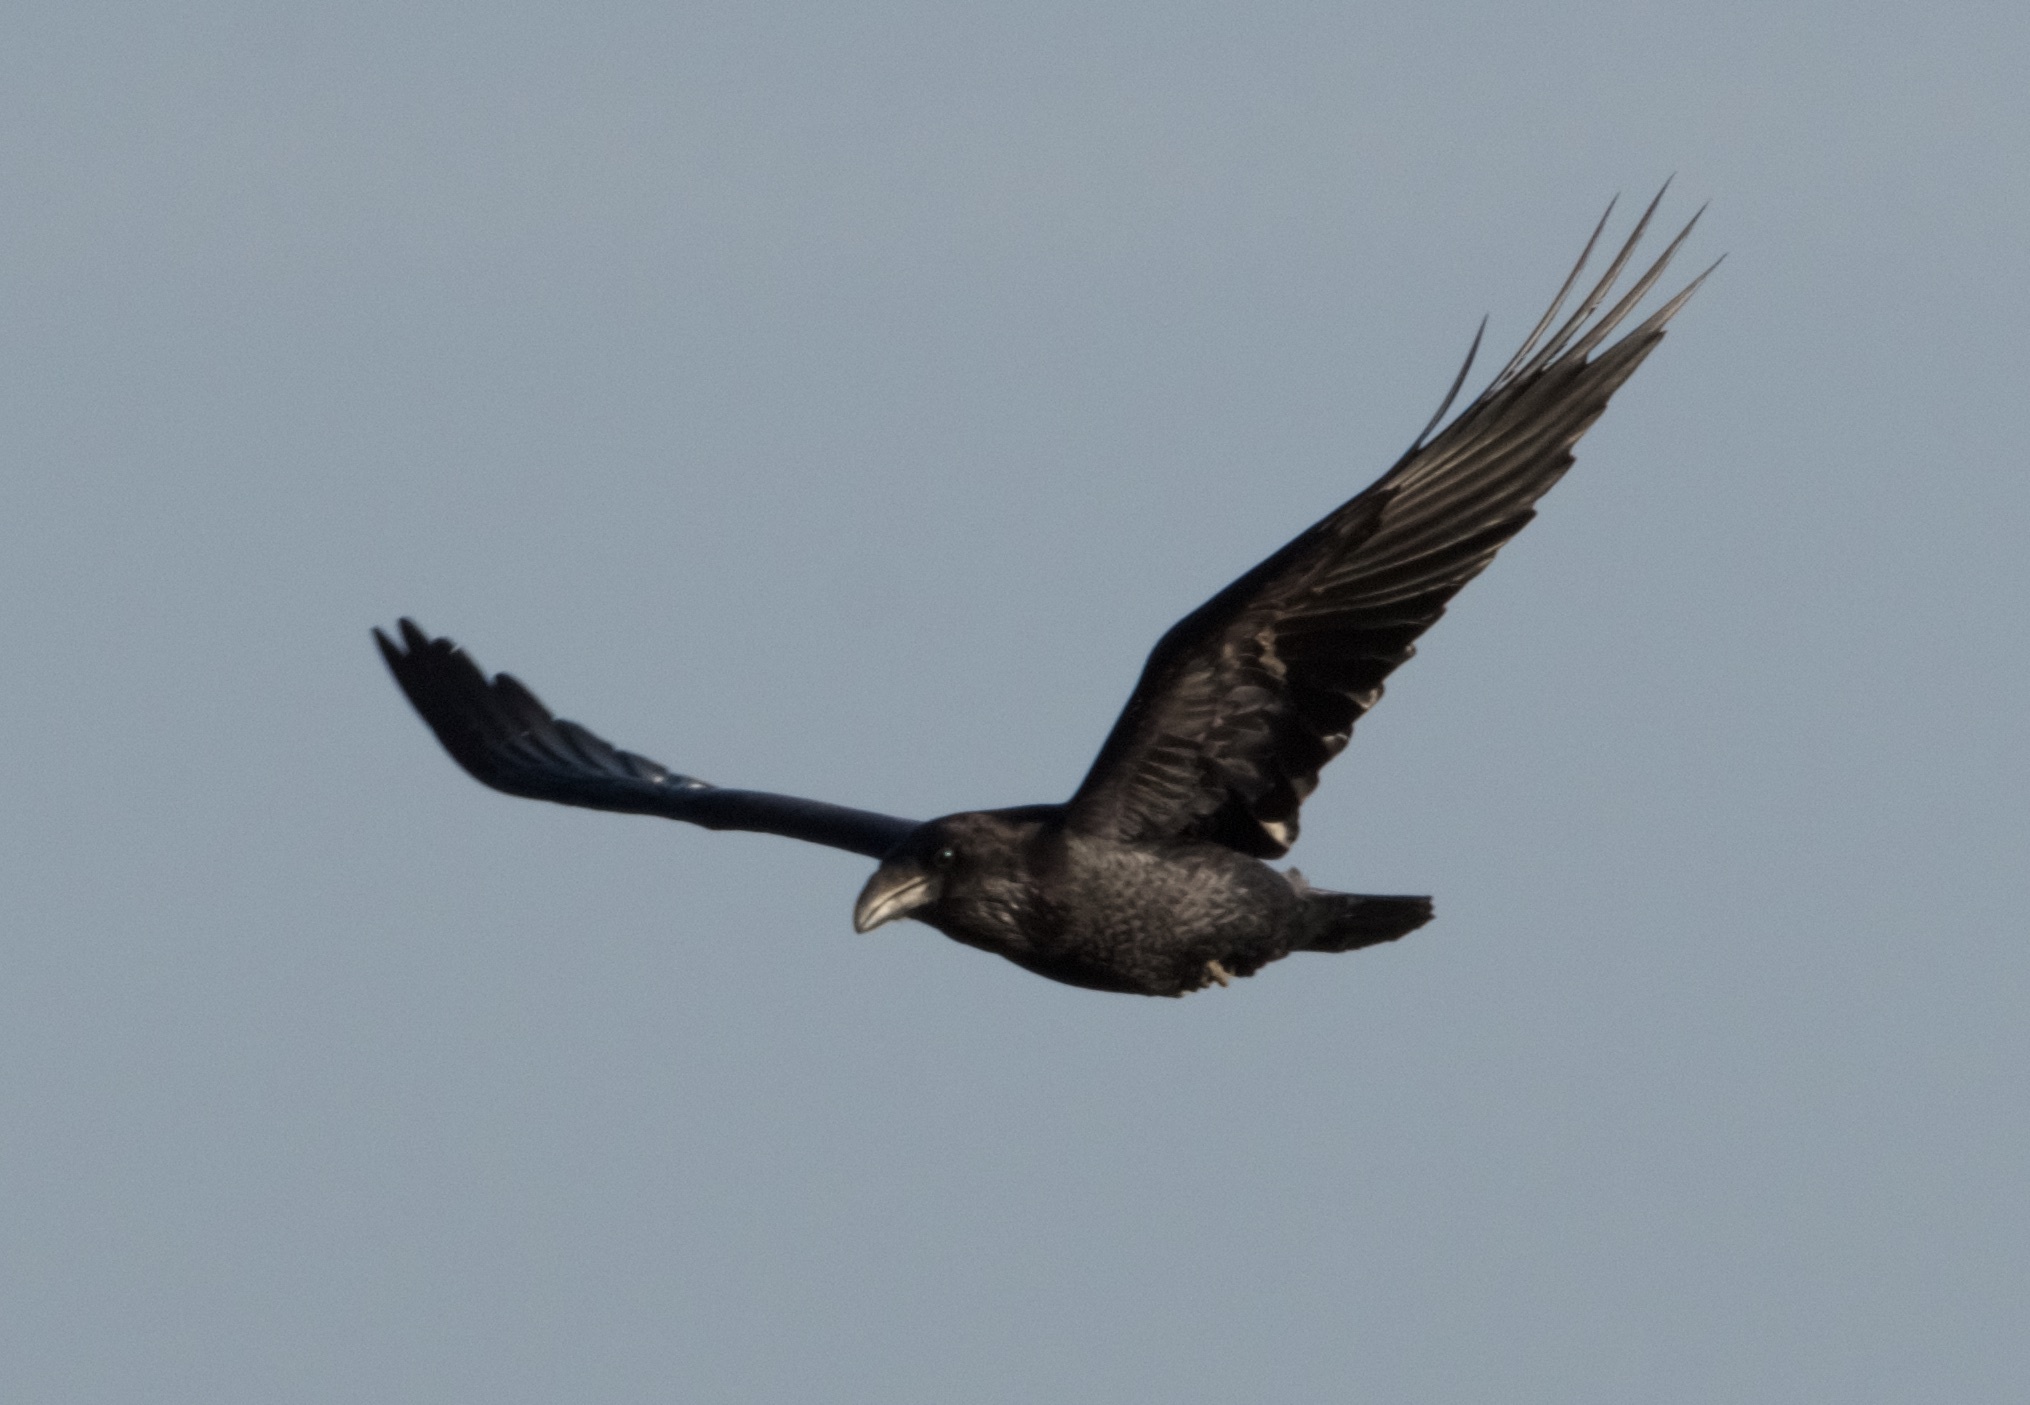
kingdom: Animalia
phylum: Chordata
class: Aves
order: Passeriformes
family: Corvidae
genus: Corvus
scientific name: Corvus corax
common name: Common raven
